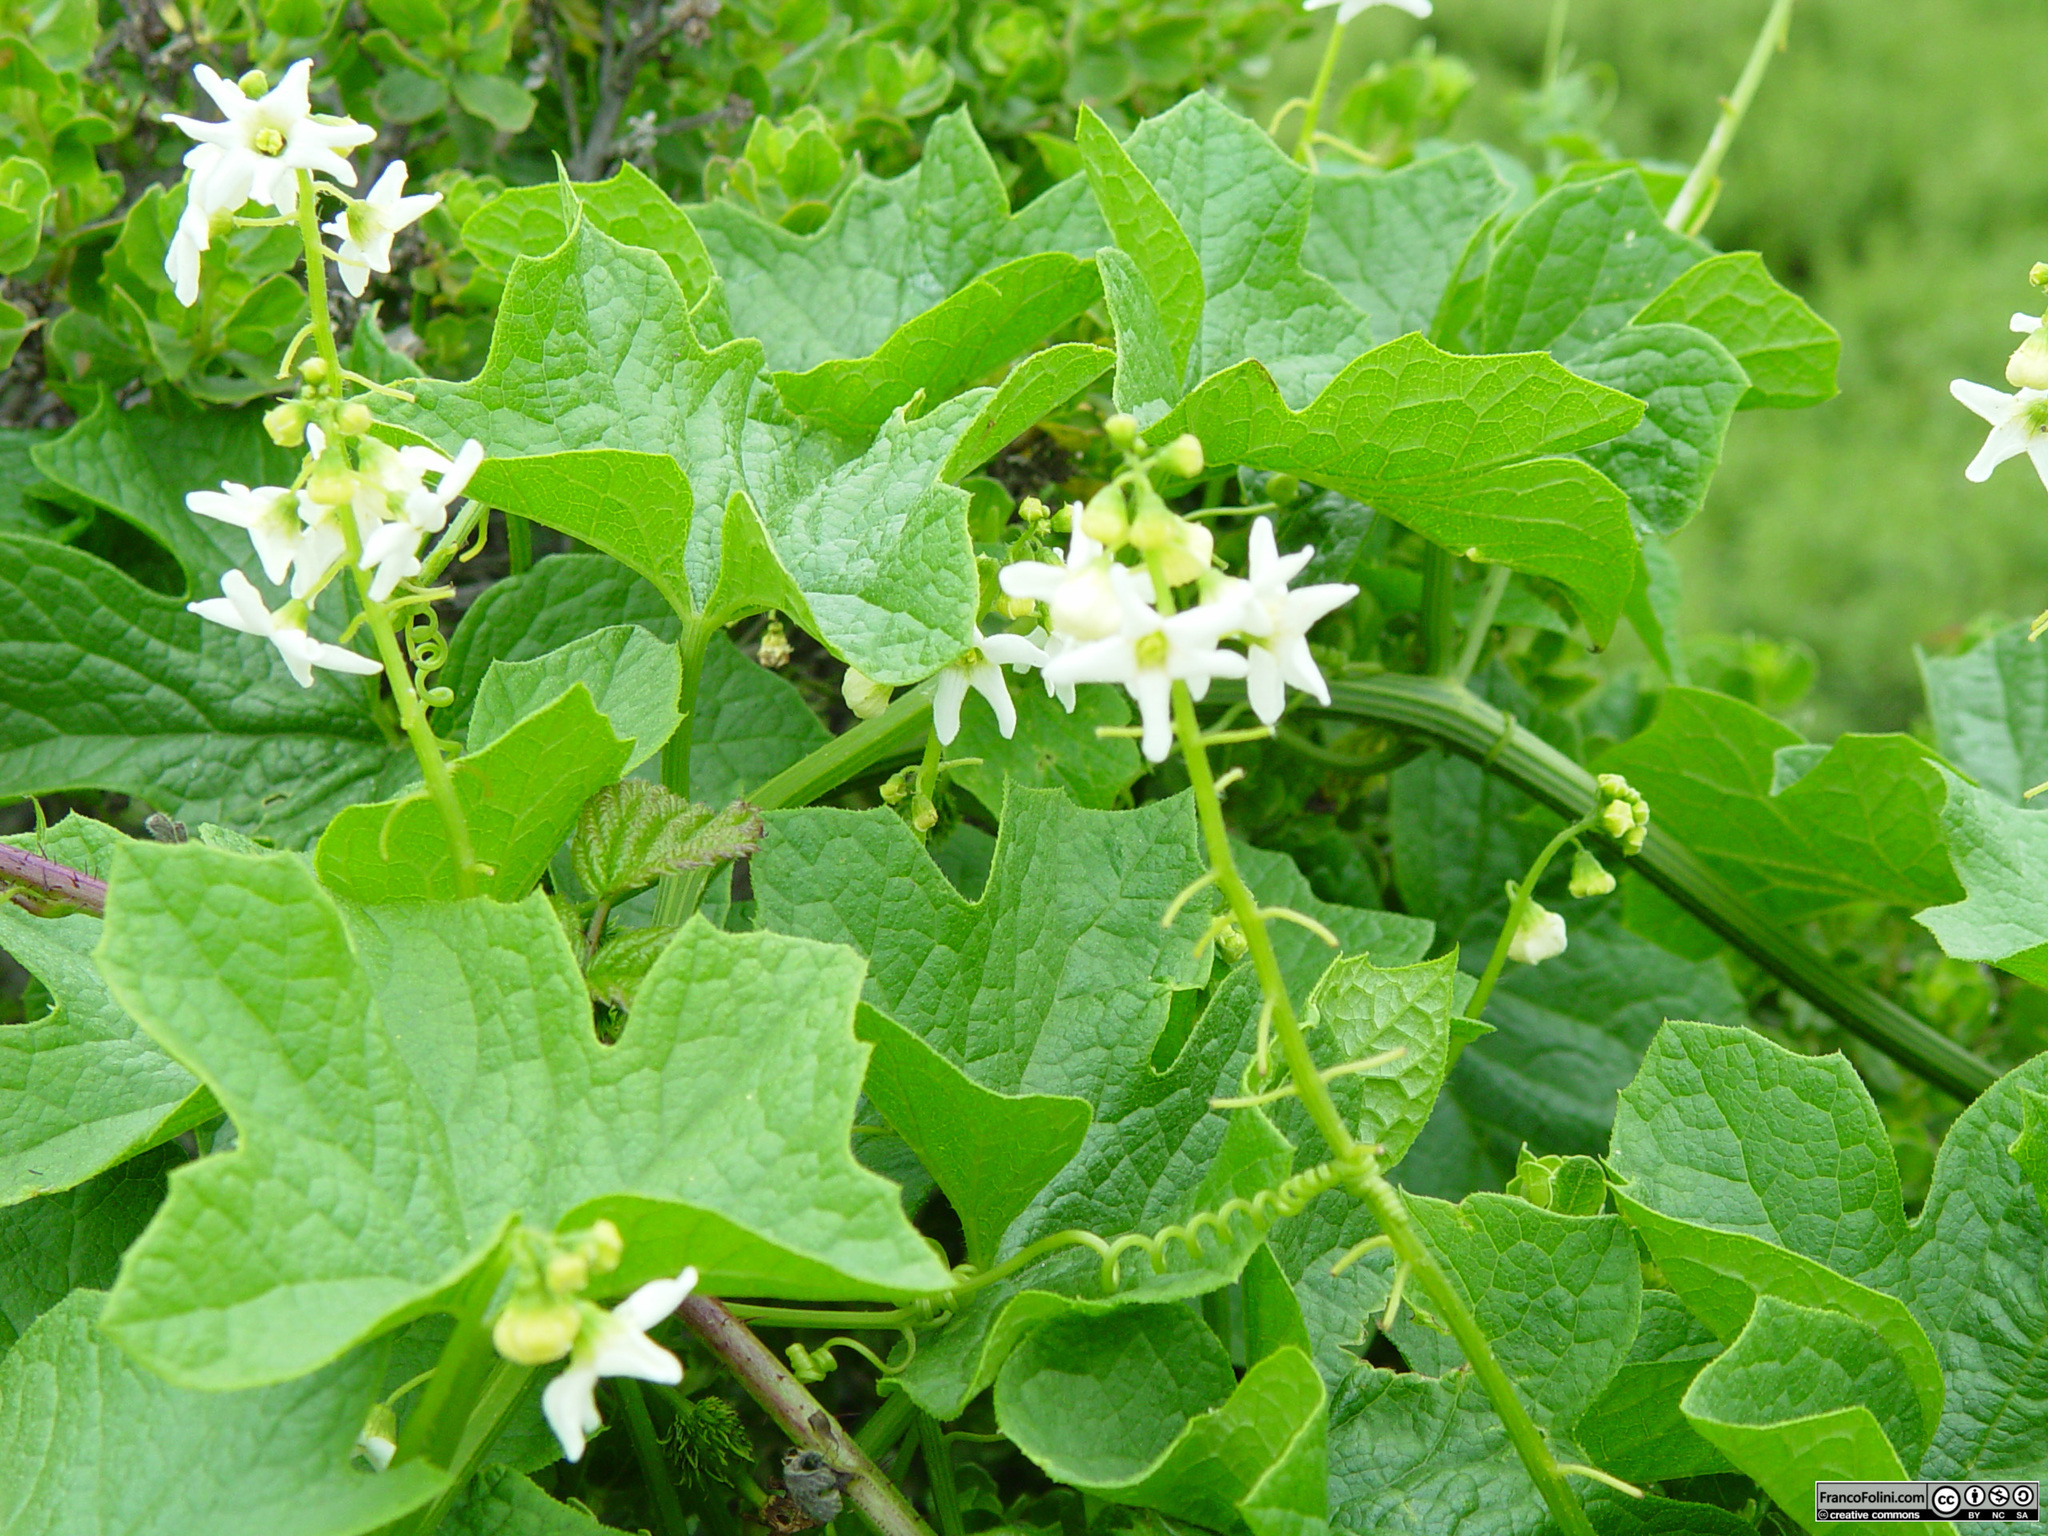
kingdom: Plantae
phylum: Tracheophyta
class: Magnoliopsida
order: Cucurbitales
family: Cucurbitaceae
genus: Marah
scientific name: Marah oregana
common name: Coastal manroot
